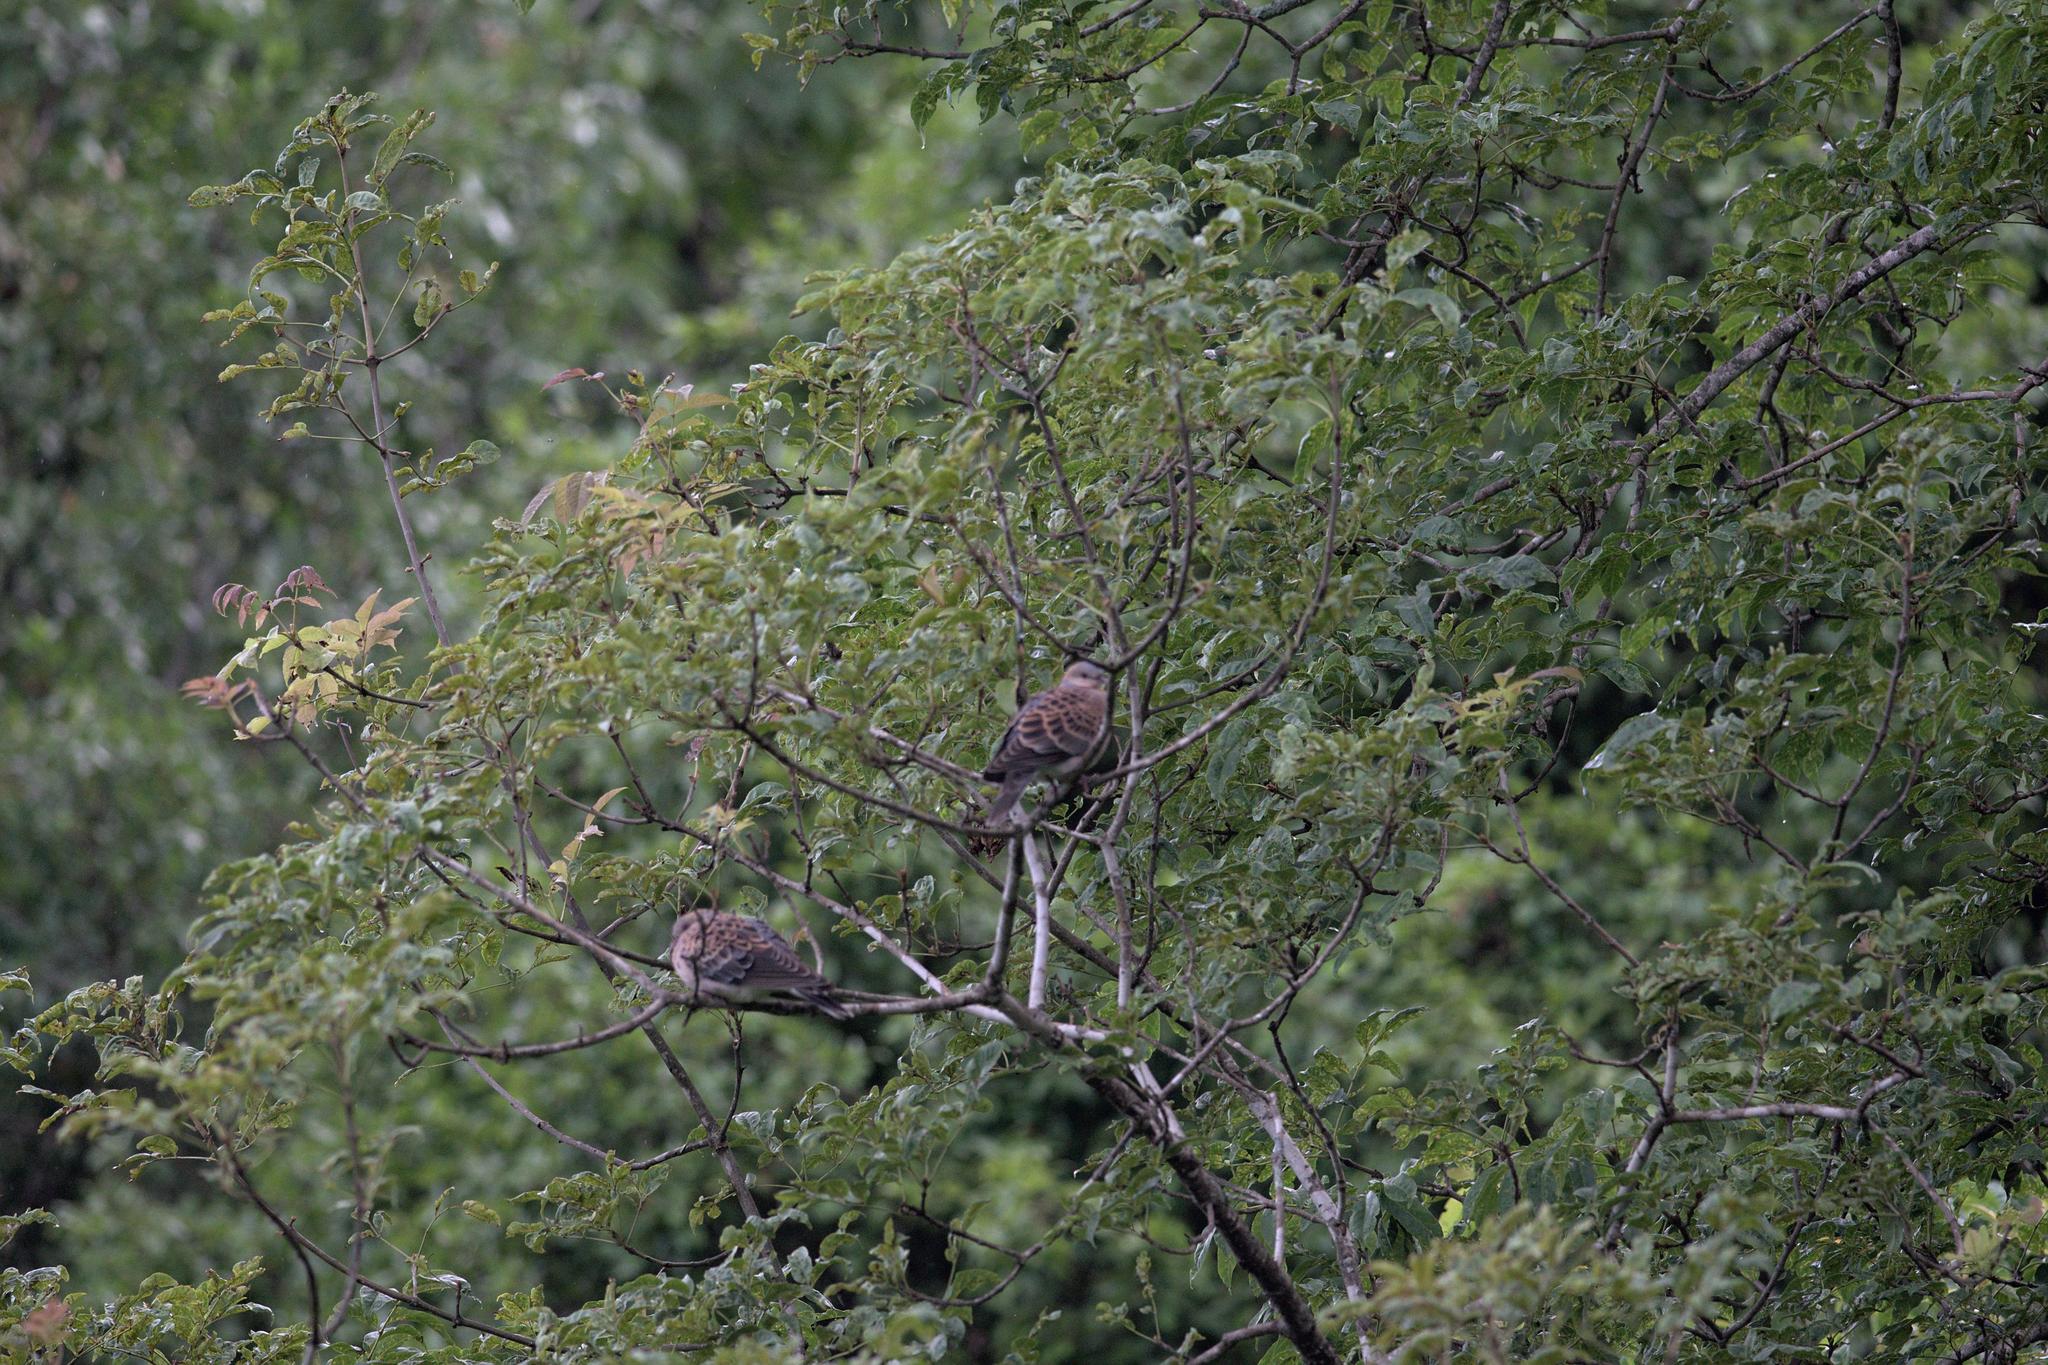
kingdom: Animalia
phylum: Chordata
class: Aves
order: Columbiformes
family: Columbidae
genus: Streptopelia
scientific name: Streptopelia orientalis
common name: Oriental turtle dove
